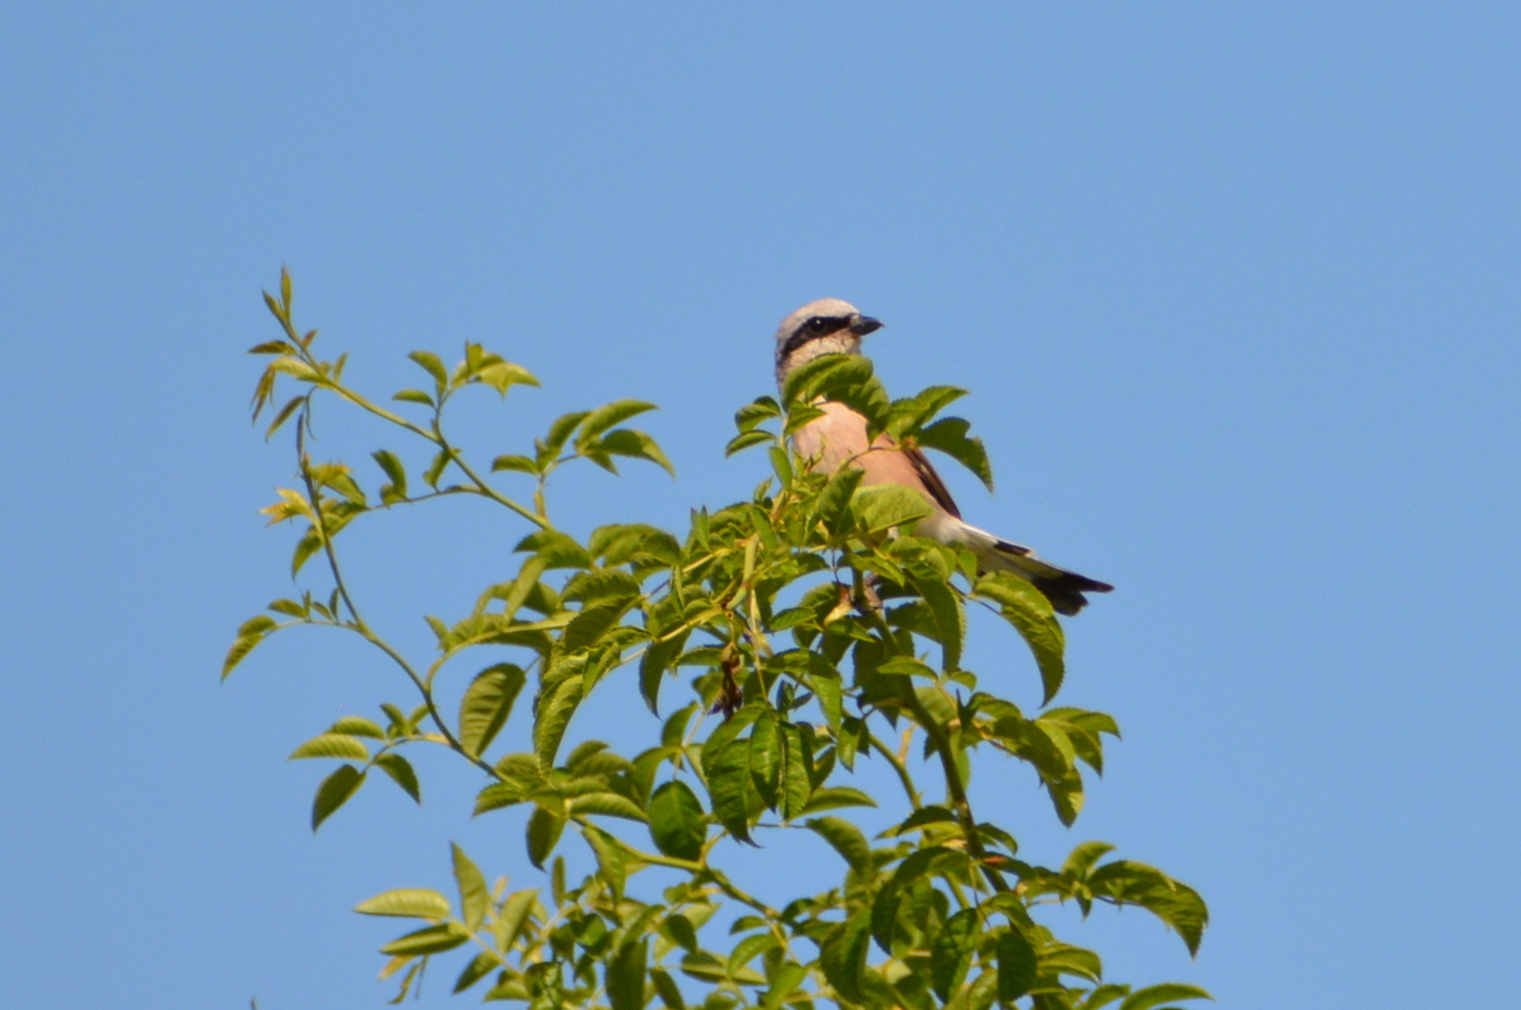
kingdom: Animalia
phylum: Chordata
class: Aves
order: Passeriformes
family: Laniidae
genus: Lanius
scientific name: Lanius collurio
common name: Red-backed shrike
